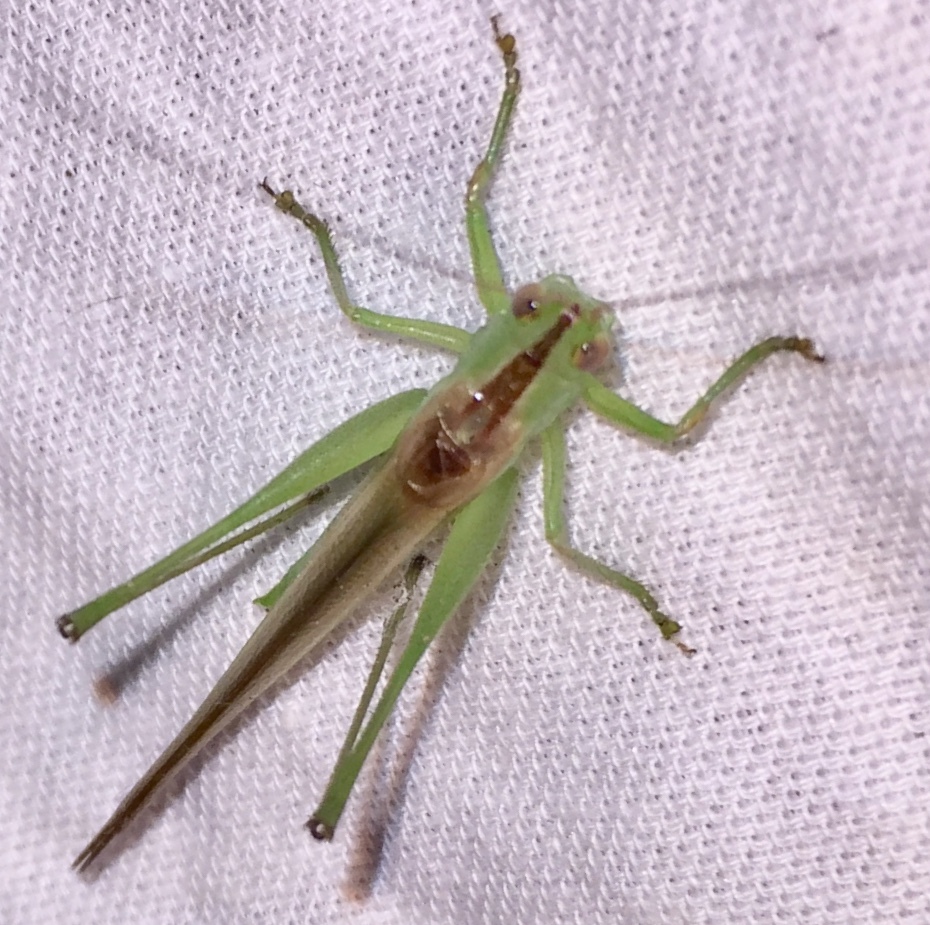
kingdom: Animalia
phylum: Arthropoda
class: Insecta
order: Orthoptera
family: Tettigoniidae
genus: Conocephalus
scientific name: Conocephalus fasciatus
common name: Slender meadow katydid
